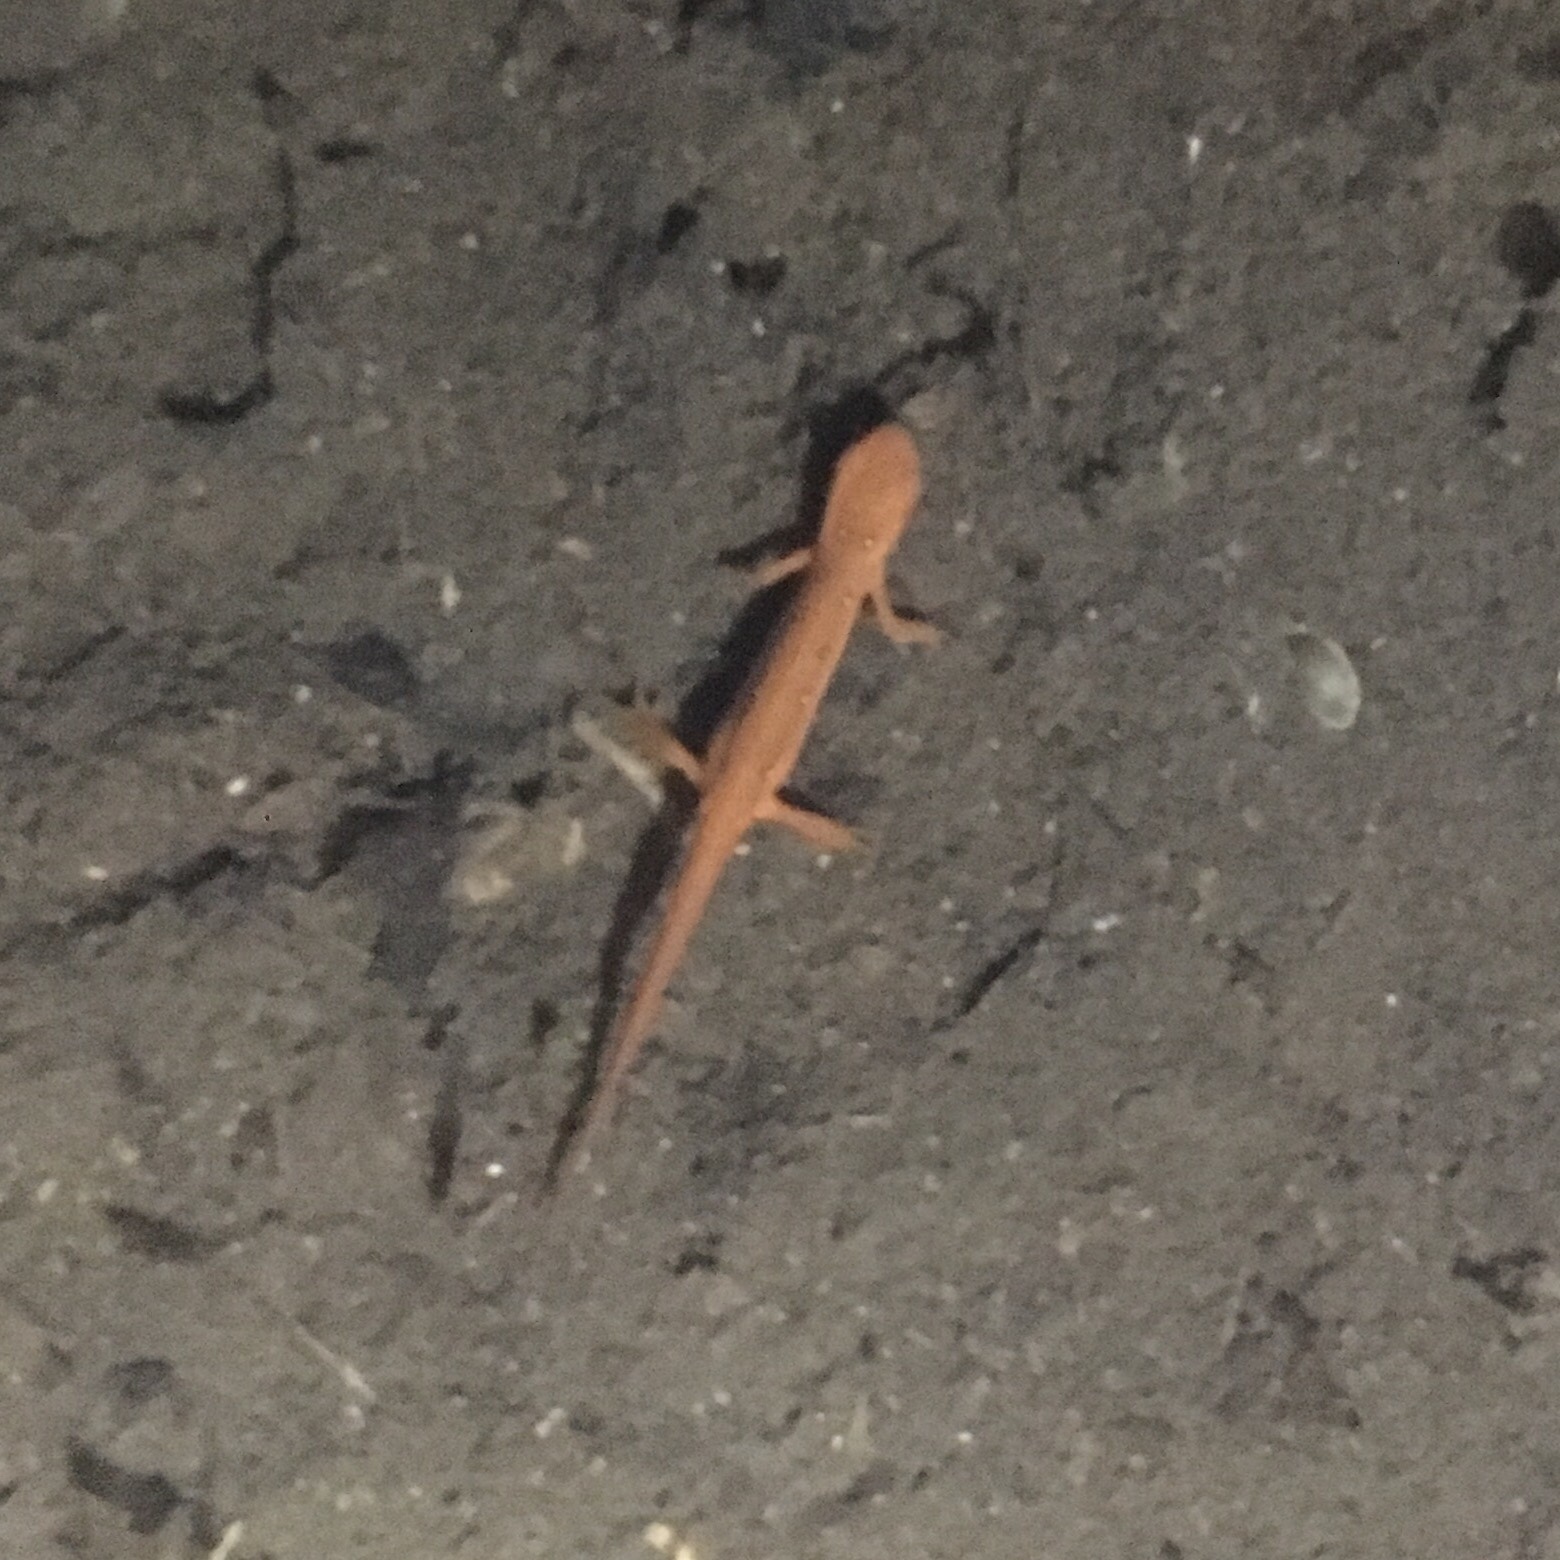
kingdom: Animalia
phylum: Chordata
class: Amphibia
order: Caudata
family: Salamandridae
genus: Notophthalmus
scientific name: Notophthalmus viridescens
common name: Eastern newt
